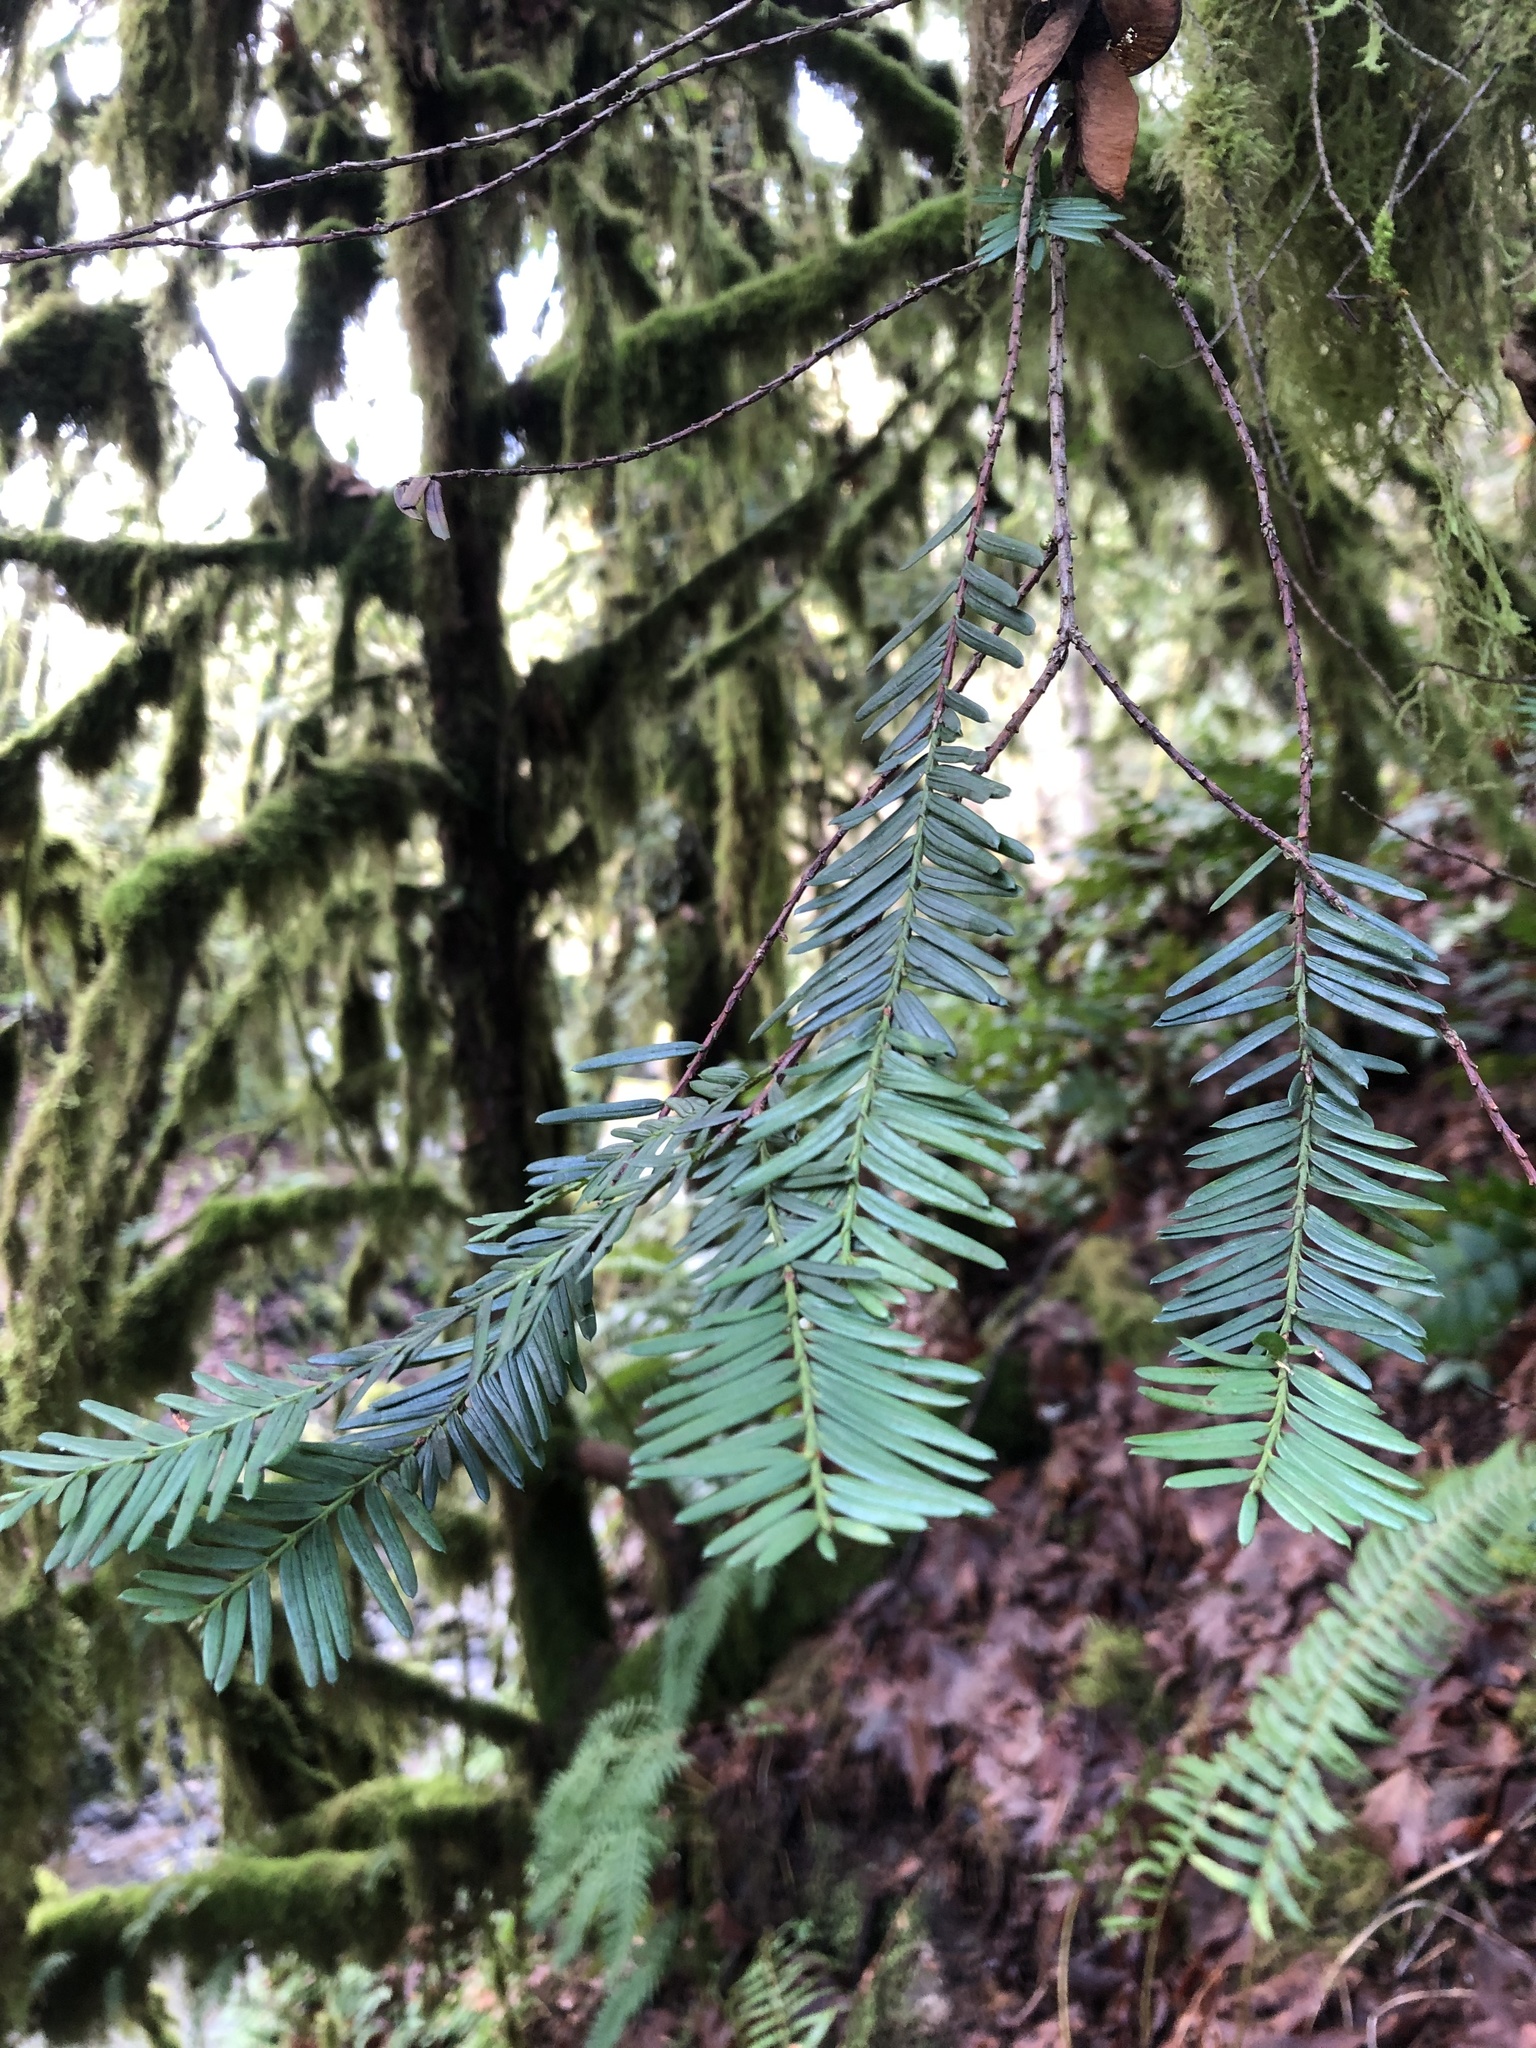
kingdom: Plantae
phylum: Tracheophyta
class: Pinopsida
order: Pinales
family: Taxaceae
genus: Taxus
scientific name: Taxus brevifolia
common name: Pacific yew
